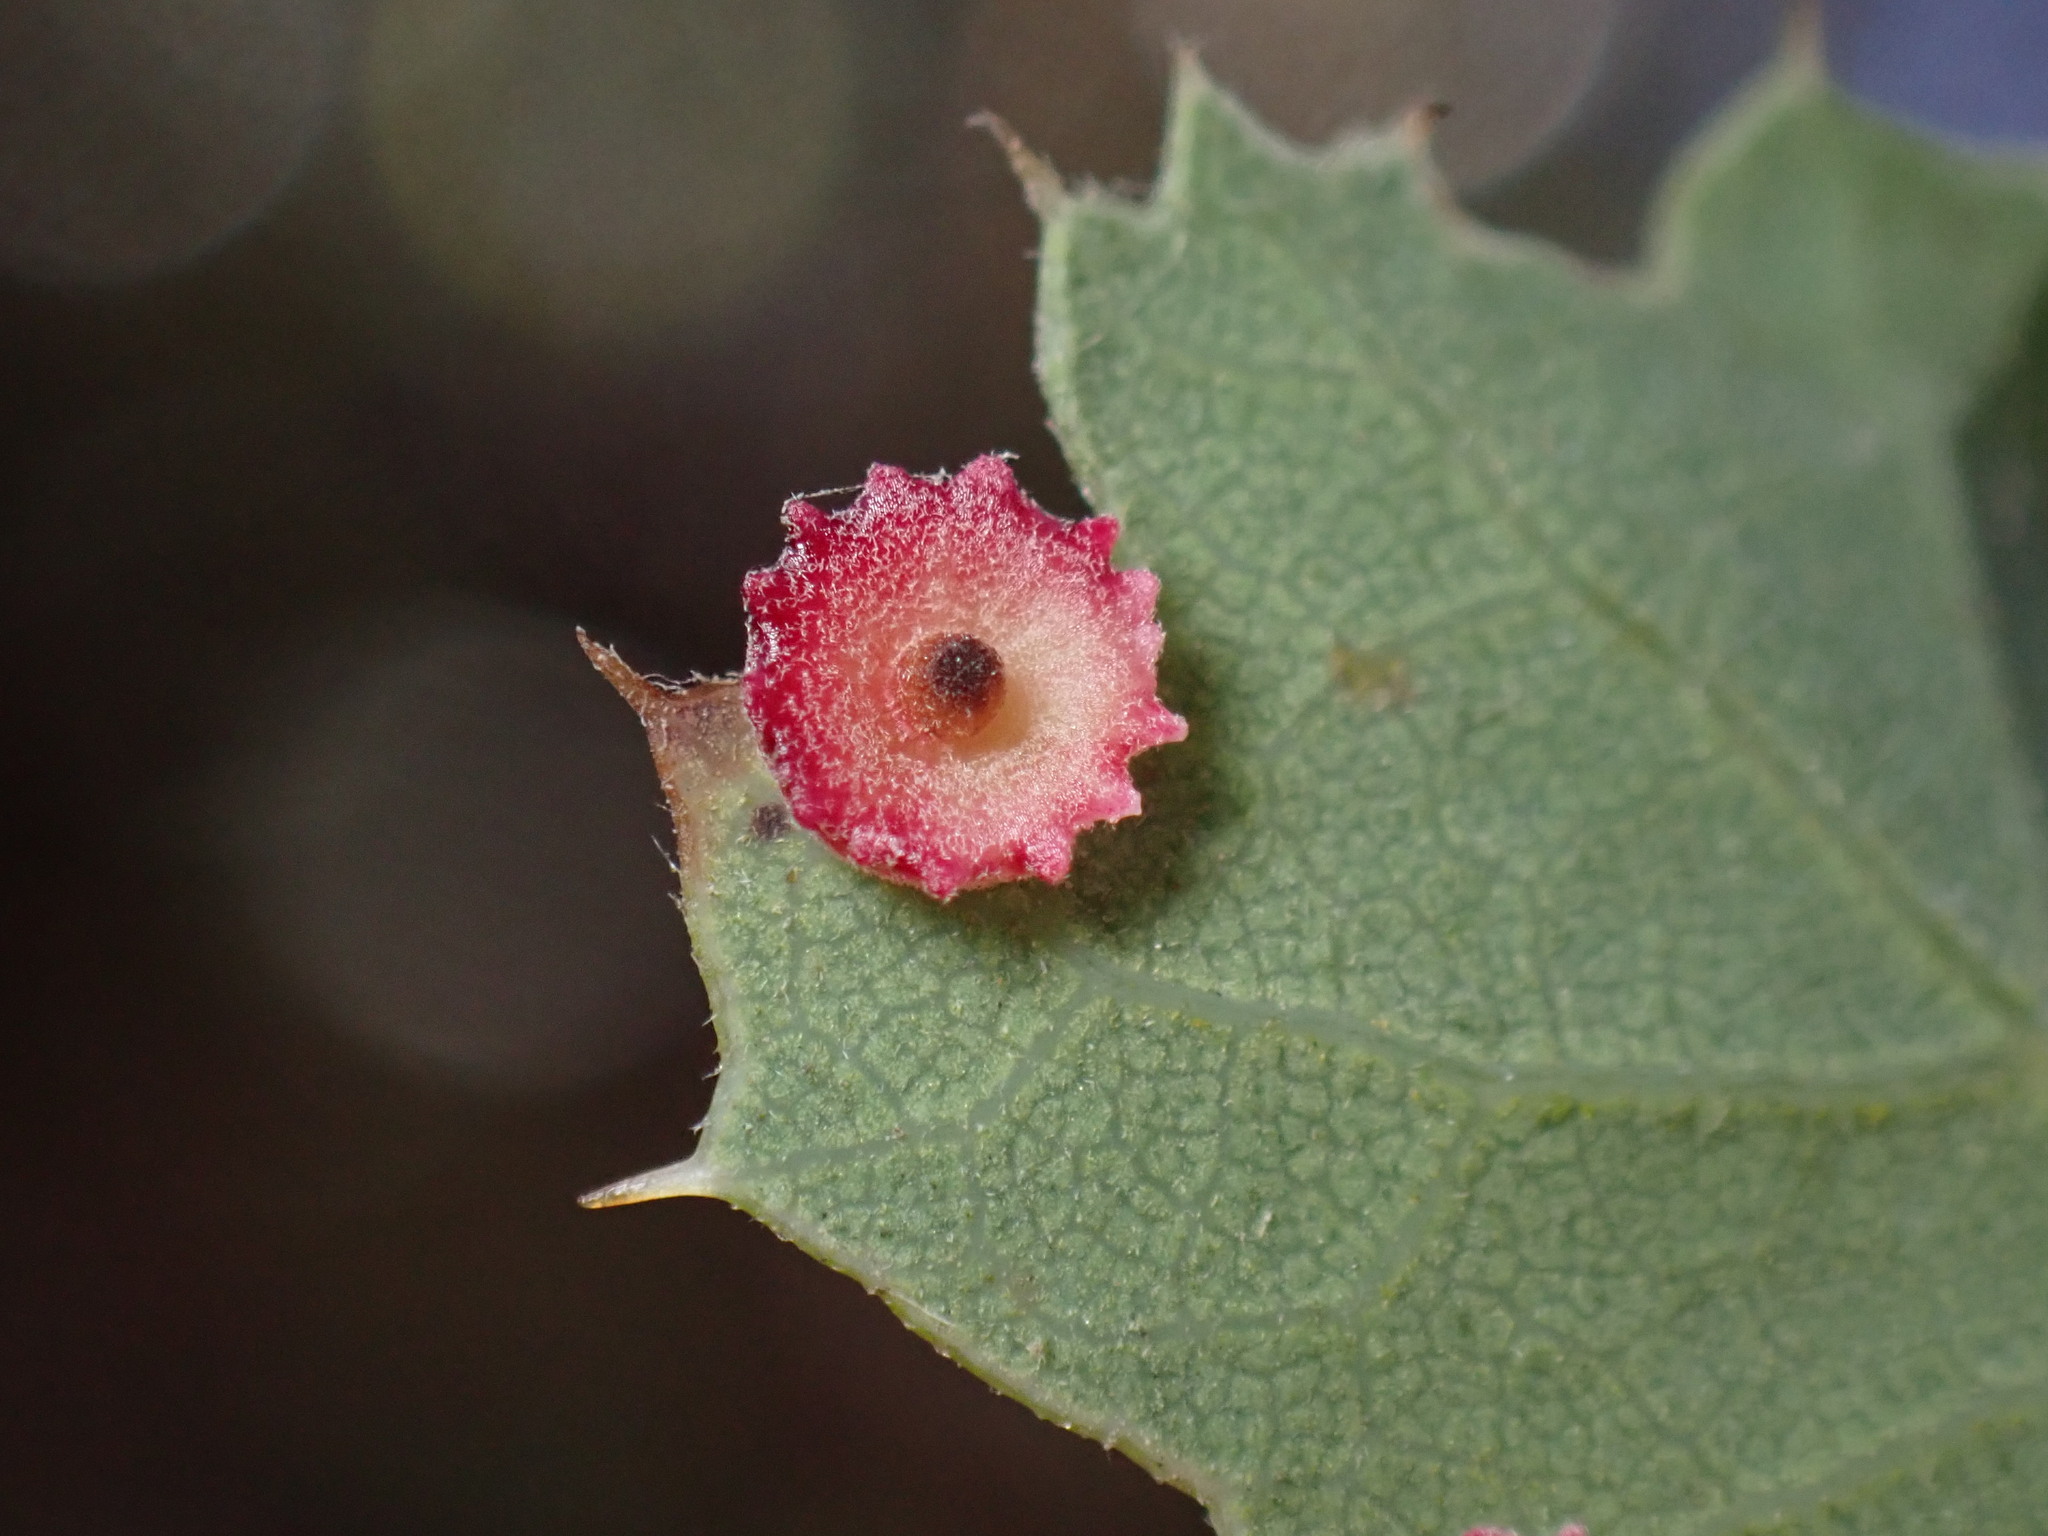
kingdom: Animalia
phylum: Arthropoda
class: Insecta
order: Hymenoptera
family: Cynipidae
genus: Andricus
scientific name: Andricus
